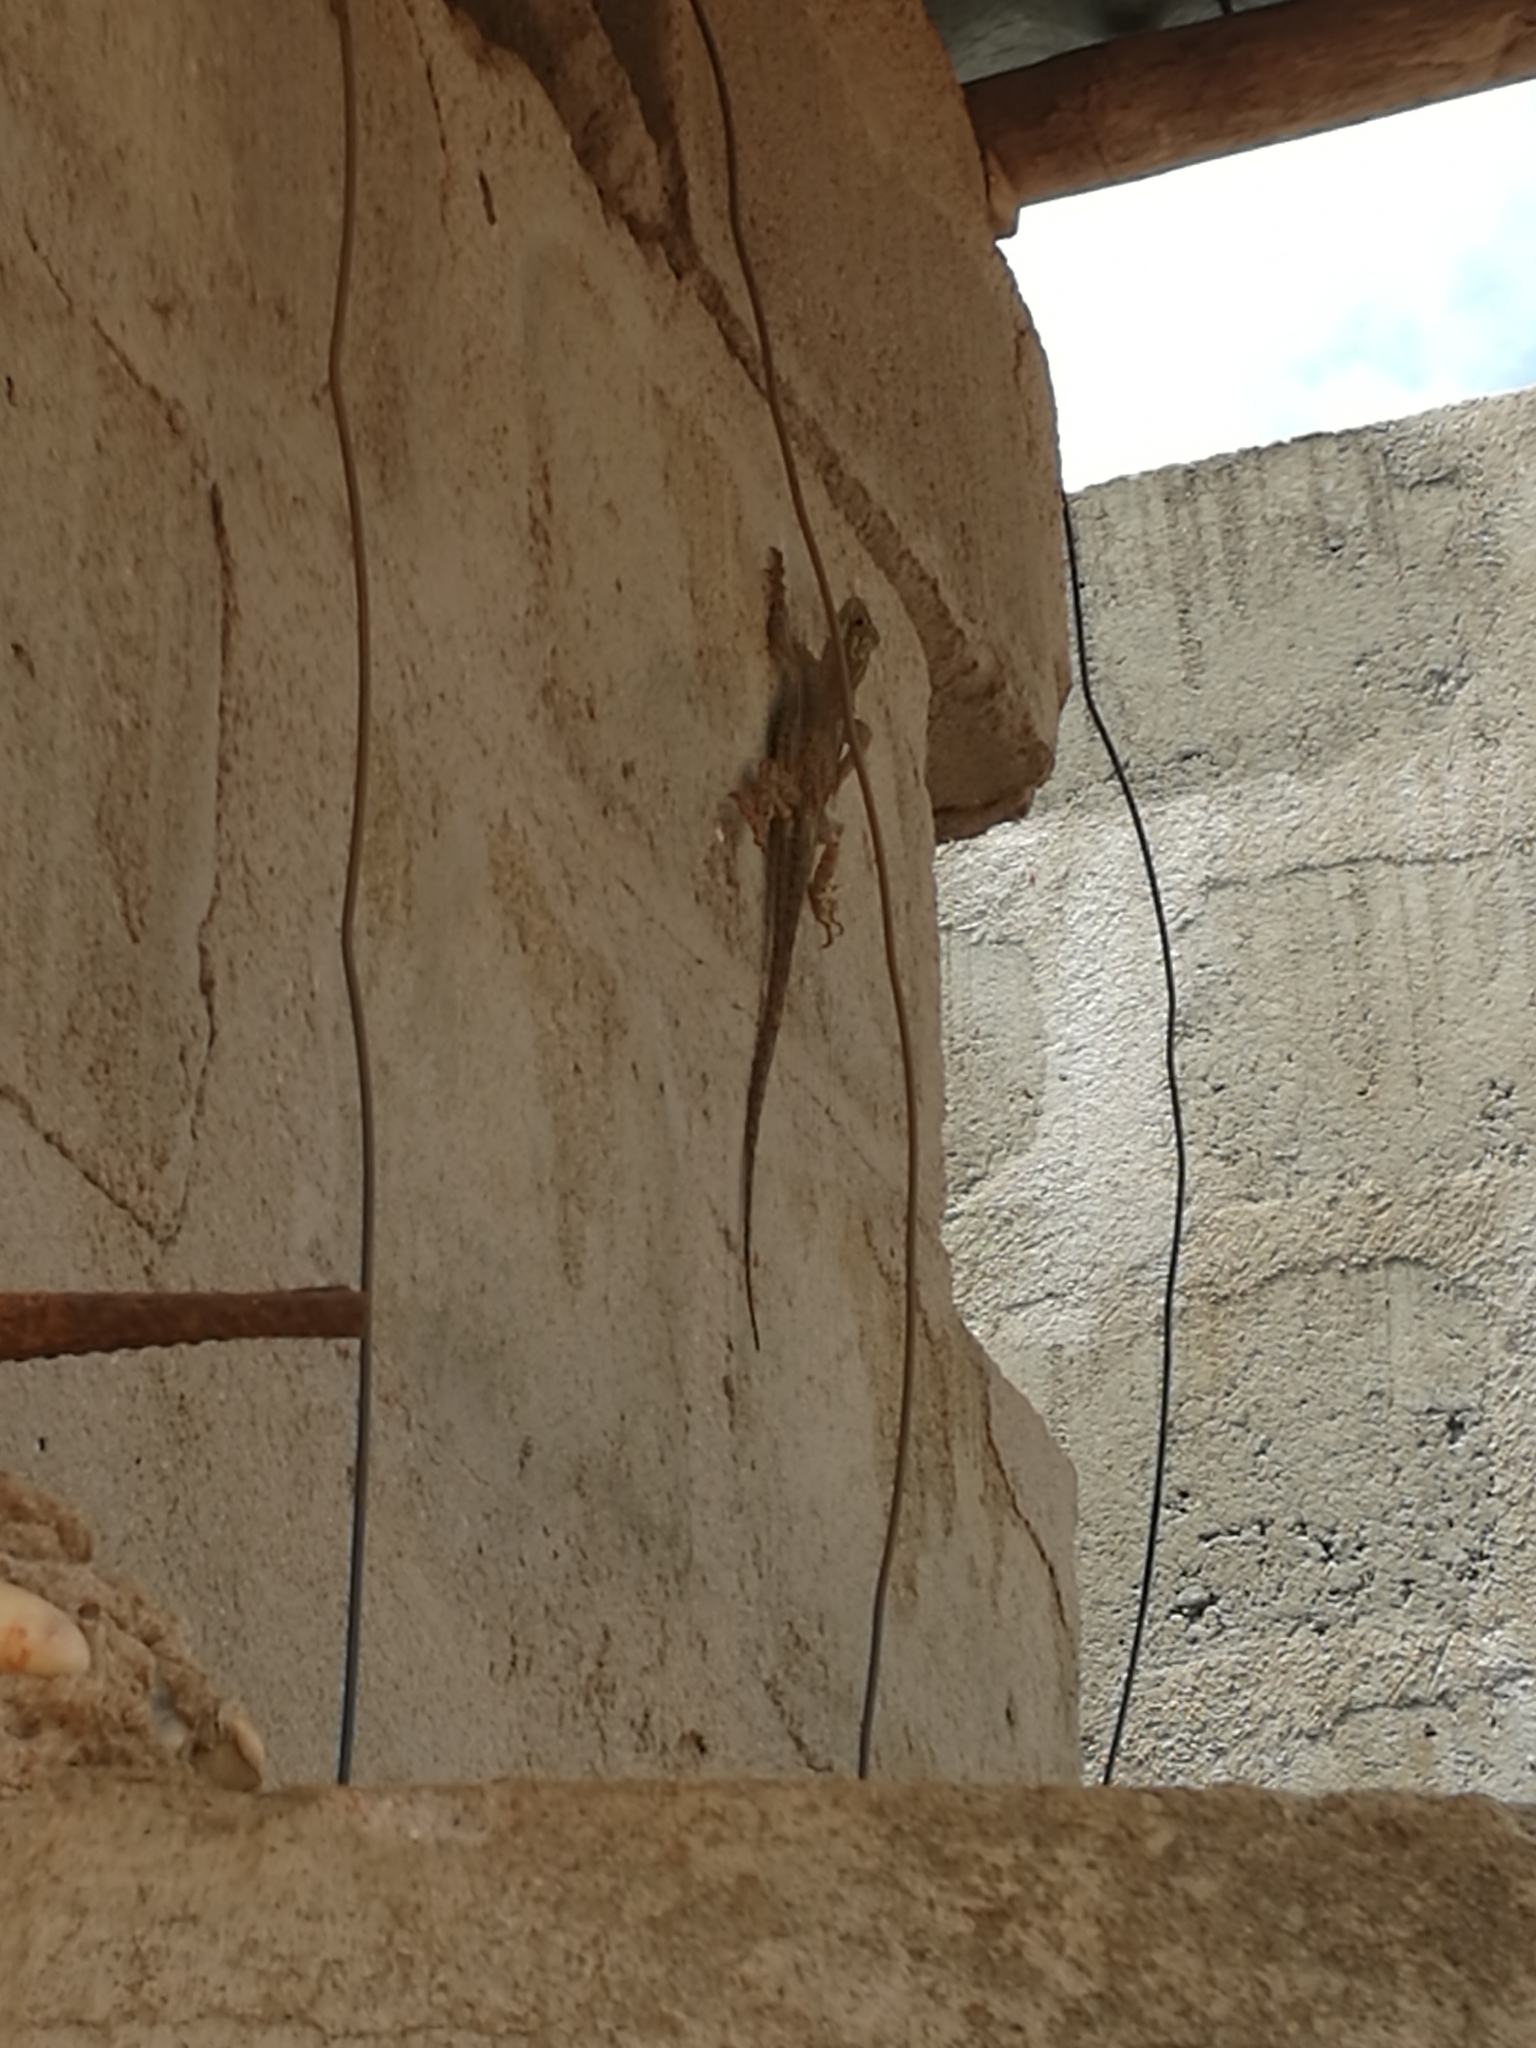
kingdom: Animalia
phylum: Chordata
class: Squamata
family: Agamidae
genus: Agama
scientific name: Agama agama
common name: Common agama
